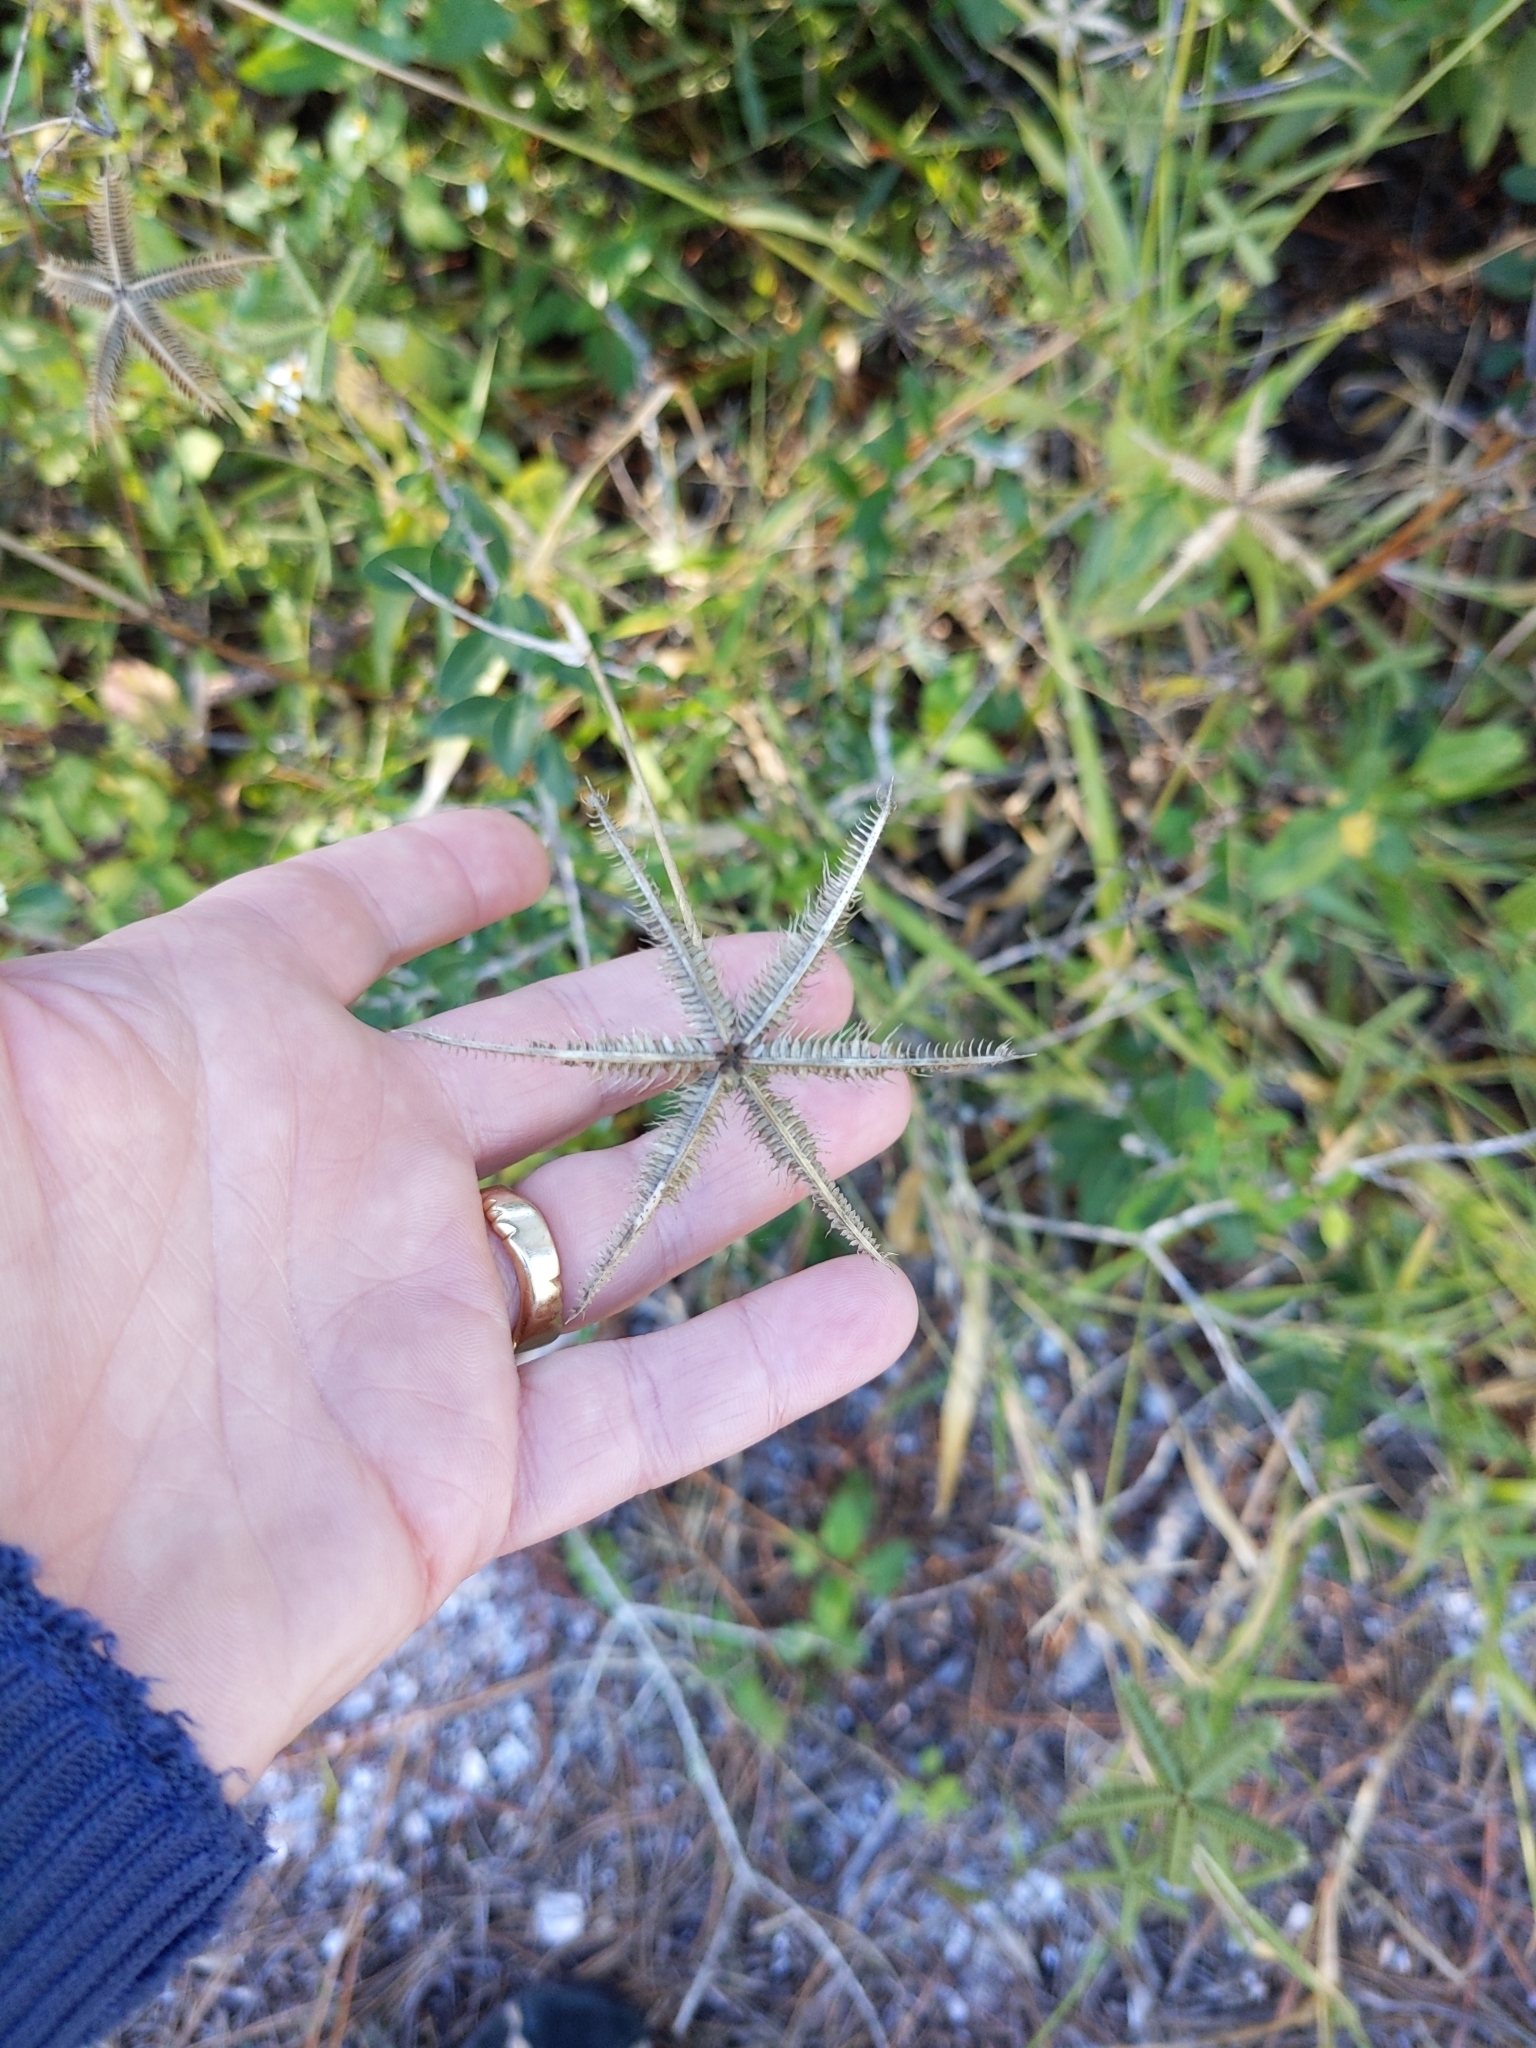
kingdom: Plantae
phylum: Tracheophyta
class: Liliopsida
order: Poales
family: Poaceae
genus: Dactyloctenium
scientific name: Dactyloctenium aegyptium
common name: Egyptian grass
